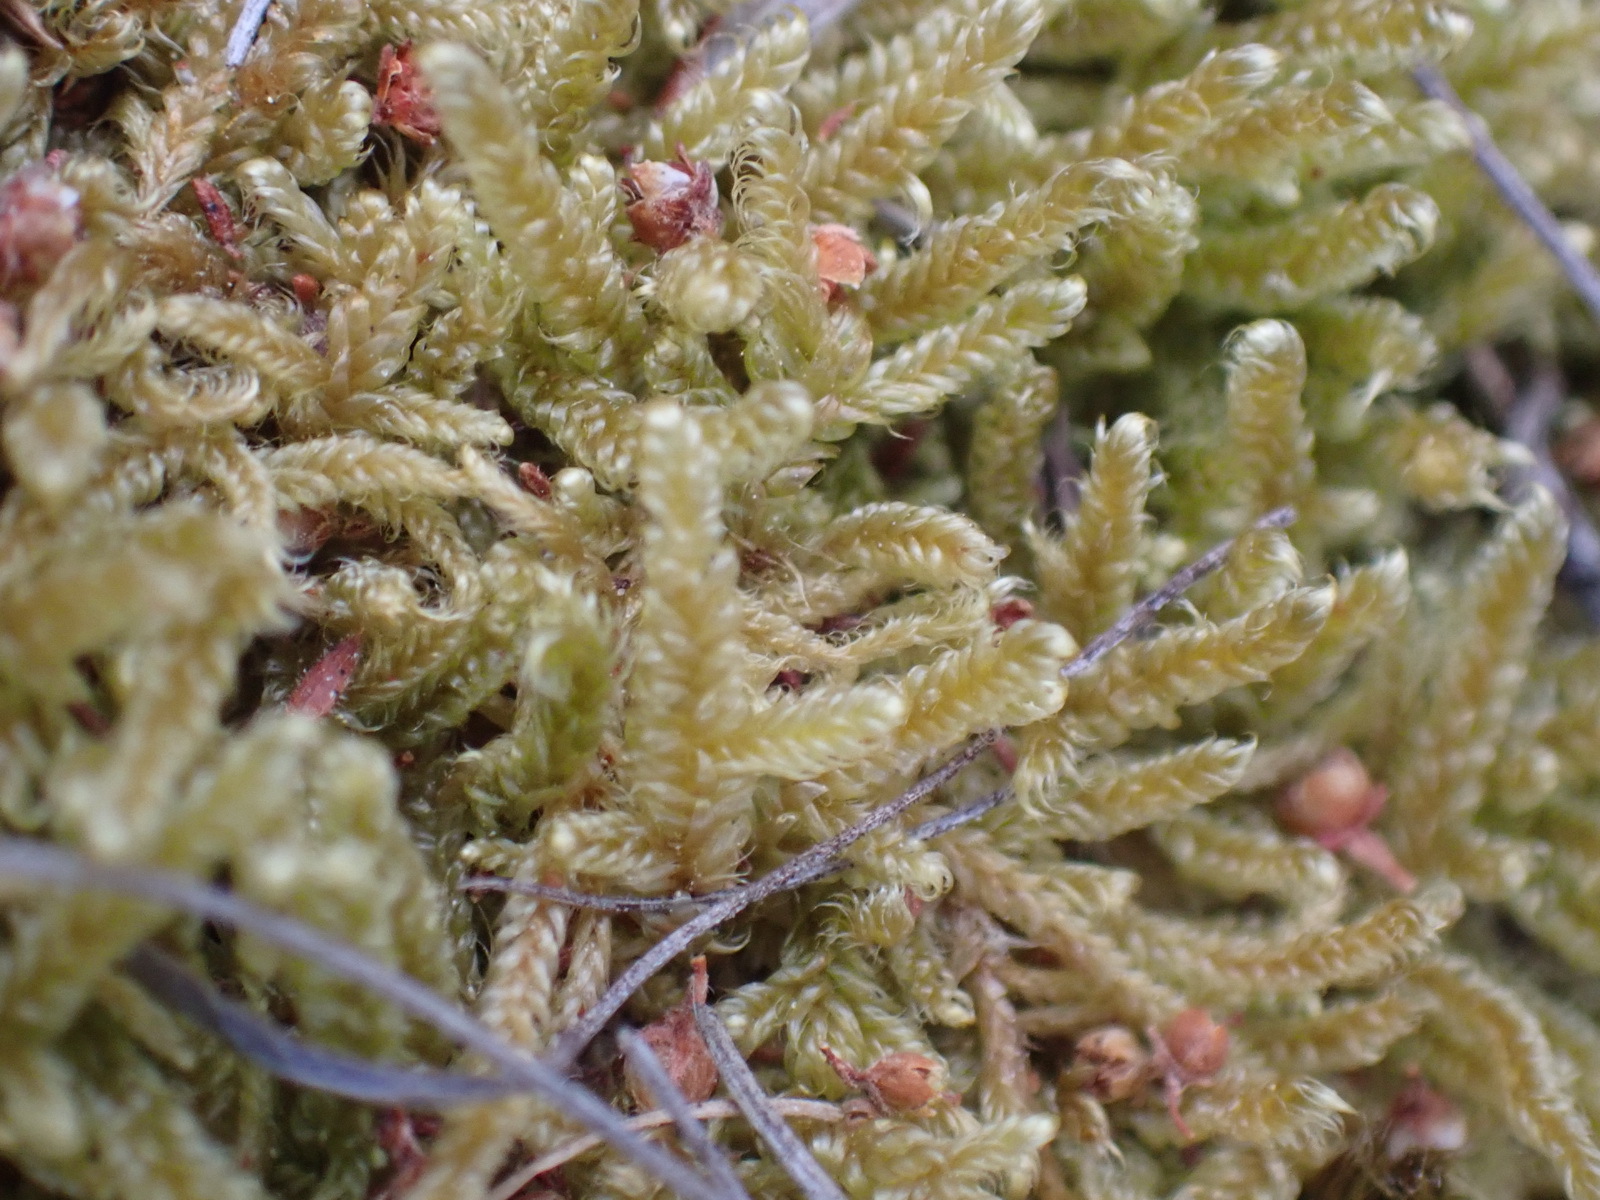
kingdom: Plantae
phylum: Bryophyta
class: Bryopsida
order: Hypnales
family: Hypnaceae
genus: Hypnum
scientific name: Hypnum cupressiforme
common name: Cypress-leaved plait-moss
